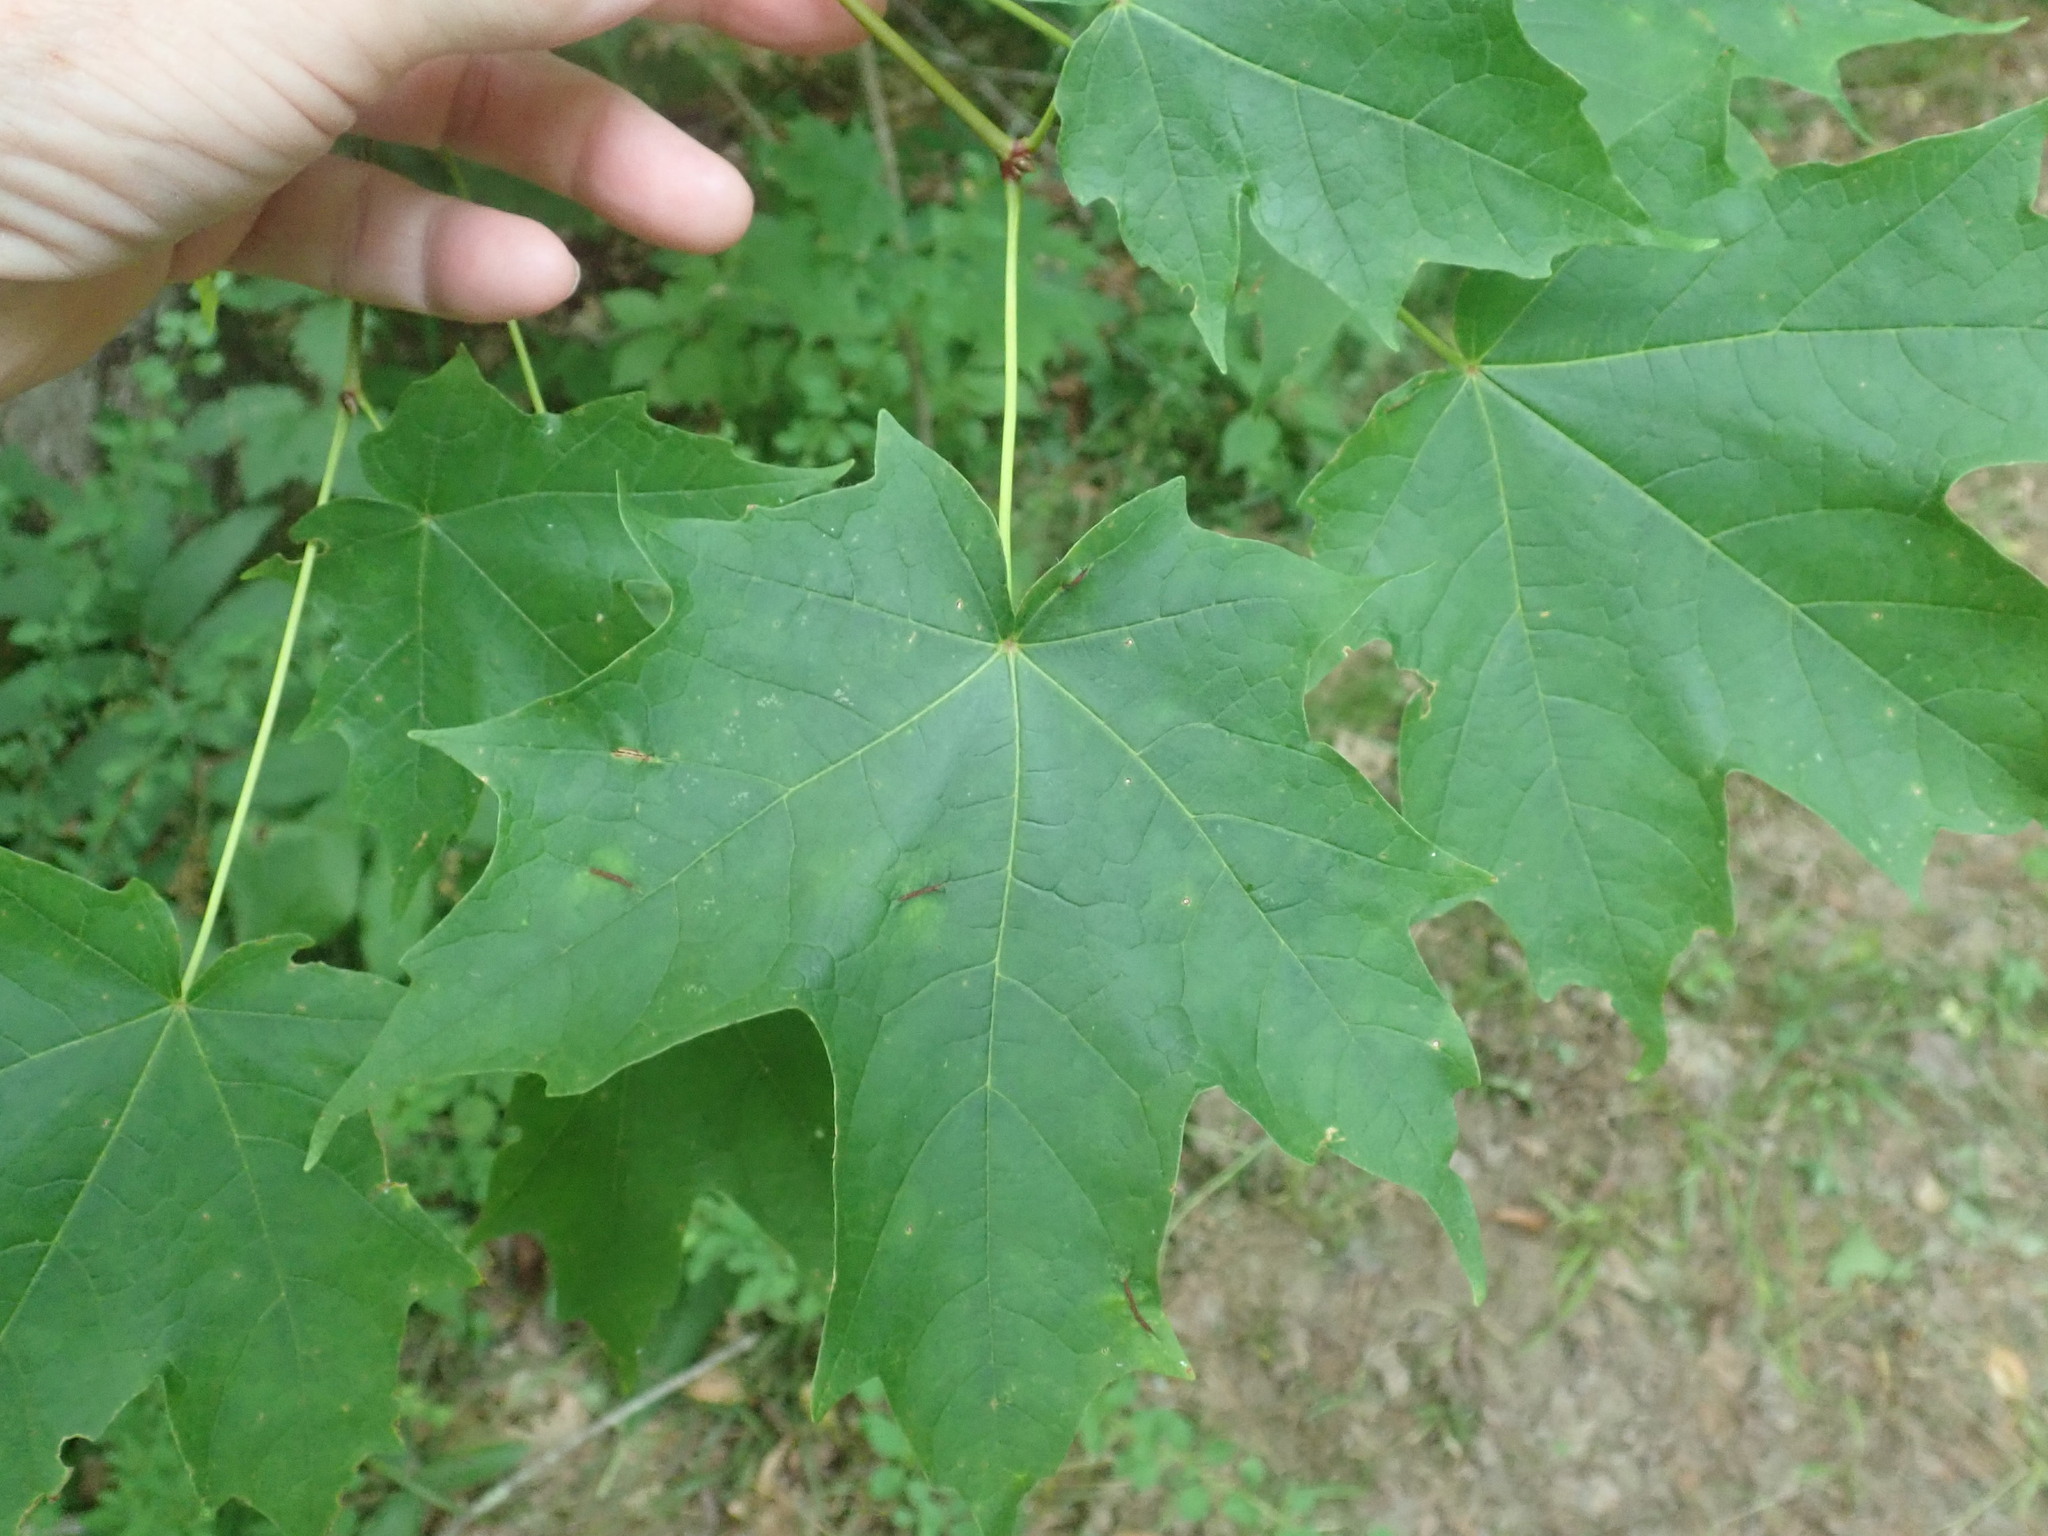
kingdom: Plantae
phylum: Tracheophyta
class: Magnoliopsida
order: Sapindales
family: Sapindaceae
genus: Acer
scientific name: Acer saccharum
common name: Sugar maple
